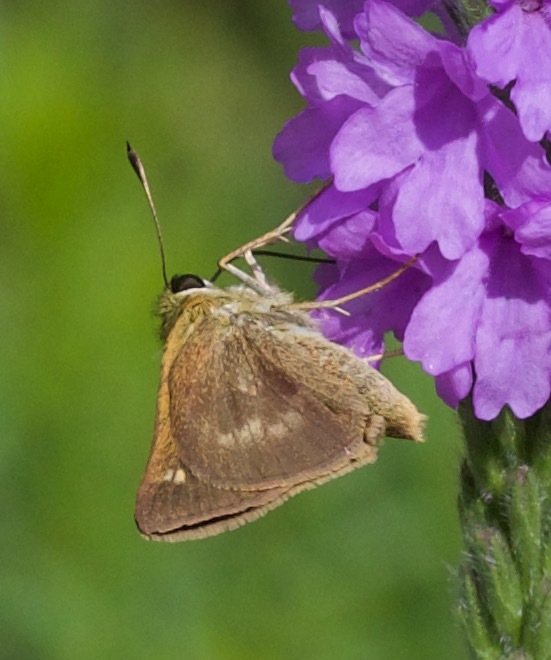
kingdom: Animalia
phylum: Arthropoda
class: Insecta
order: Lepidoptera
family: Hesperiidae
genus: Polites
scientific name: Polites egeremet
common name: Northern broken-dash
